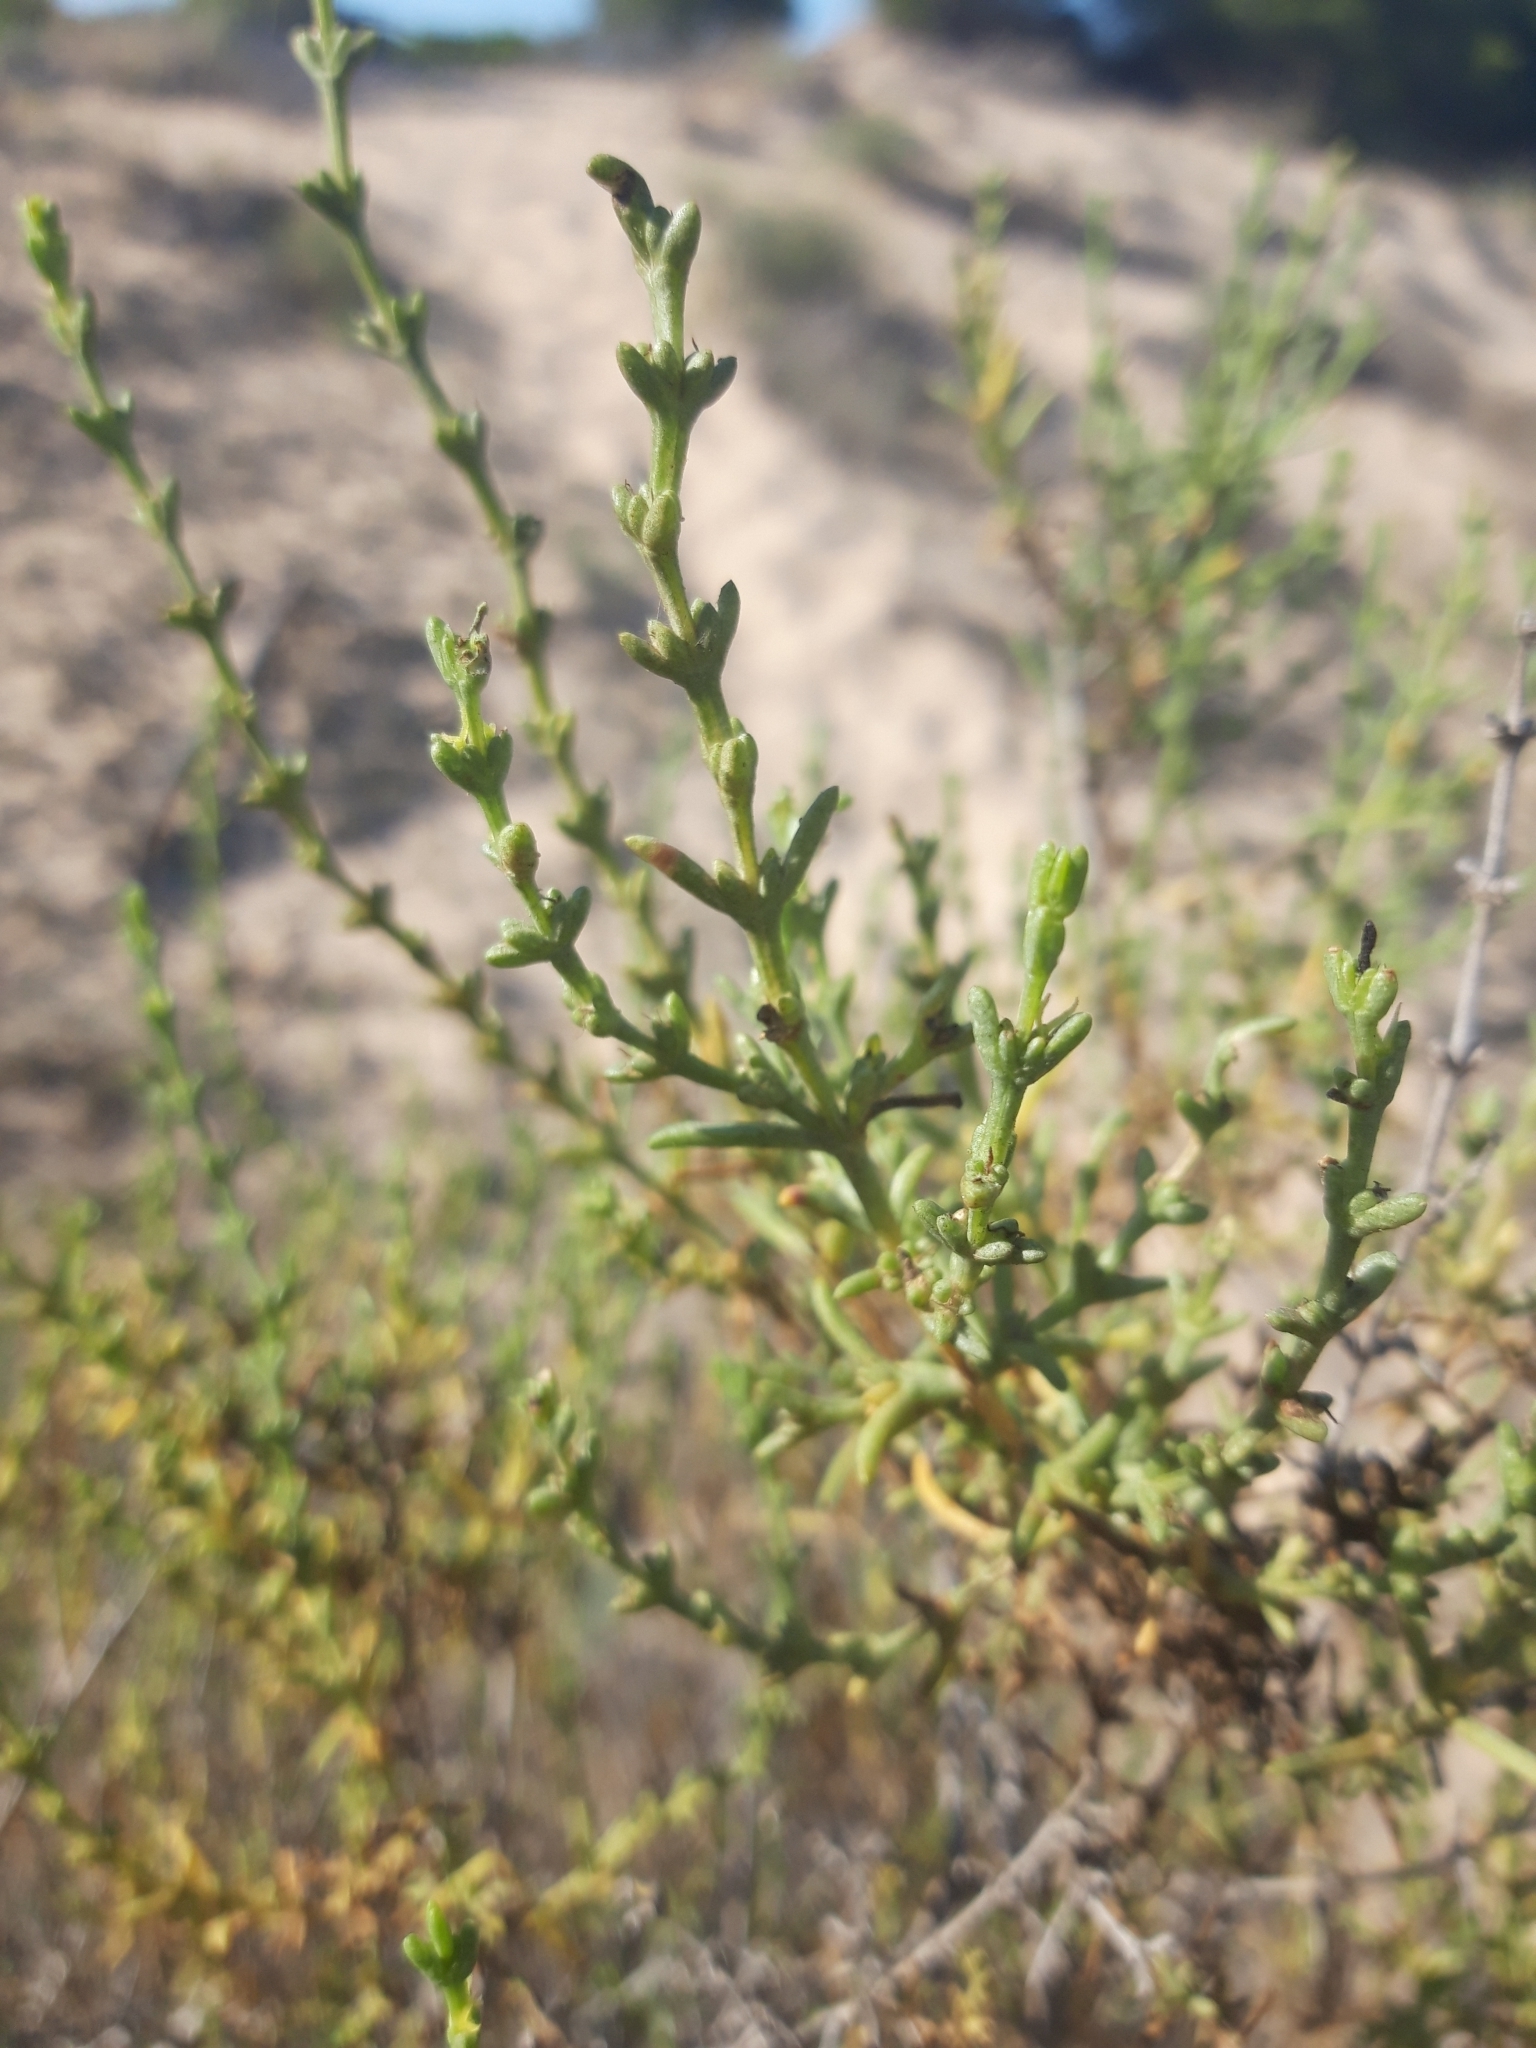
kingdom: Plantae
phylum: Tracheophyta
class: Magnoliopsida
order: Caryophyllales
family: Amaranthaceae
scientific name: Amaranthaceae
